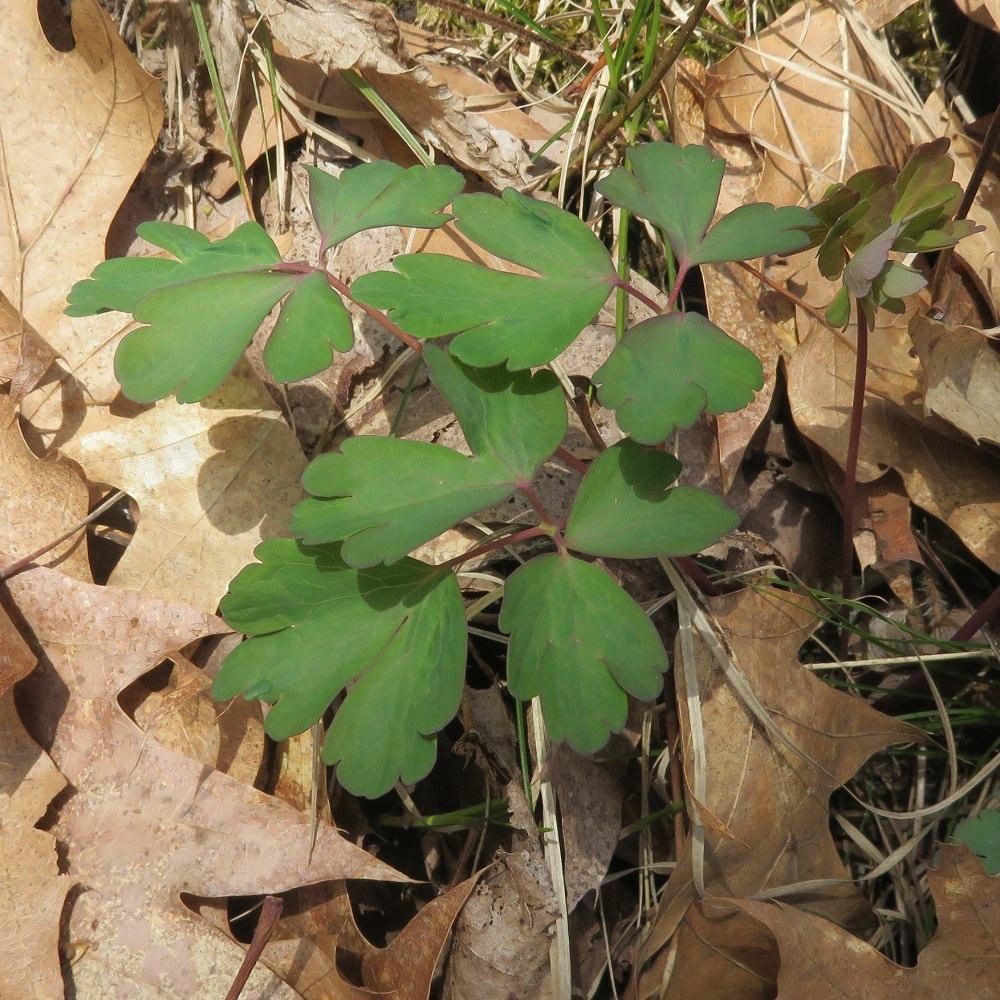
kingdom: Plantae
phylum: Tracheophyta
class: Magnoliopsida
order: Ranunculales
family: Ranunculaceae
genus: Aquilegia
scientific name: Aquilegia canadensis
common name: American columbine
